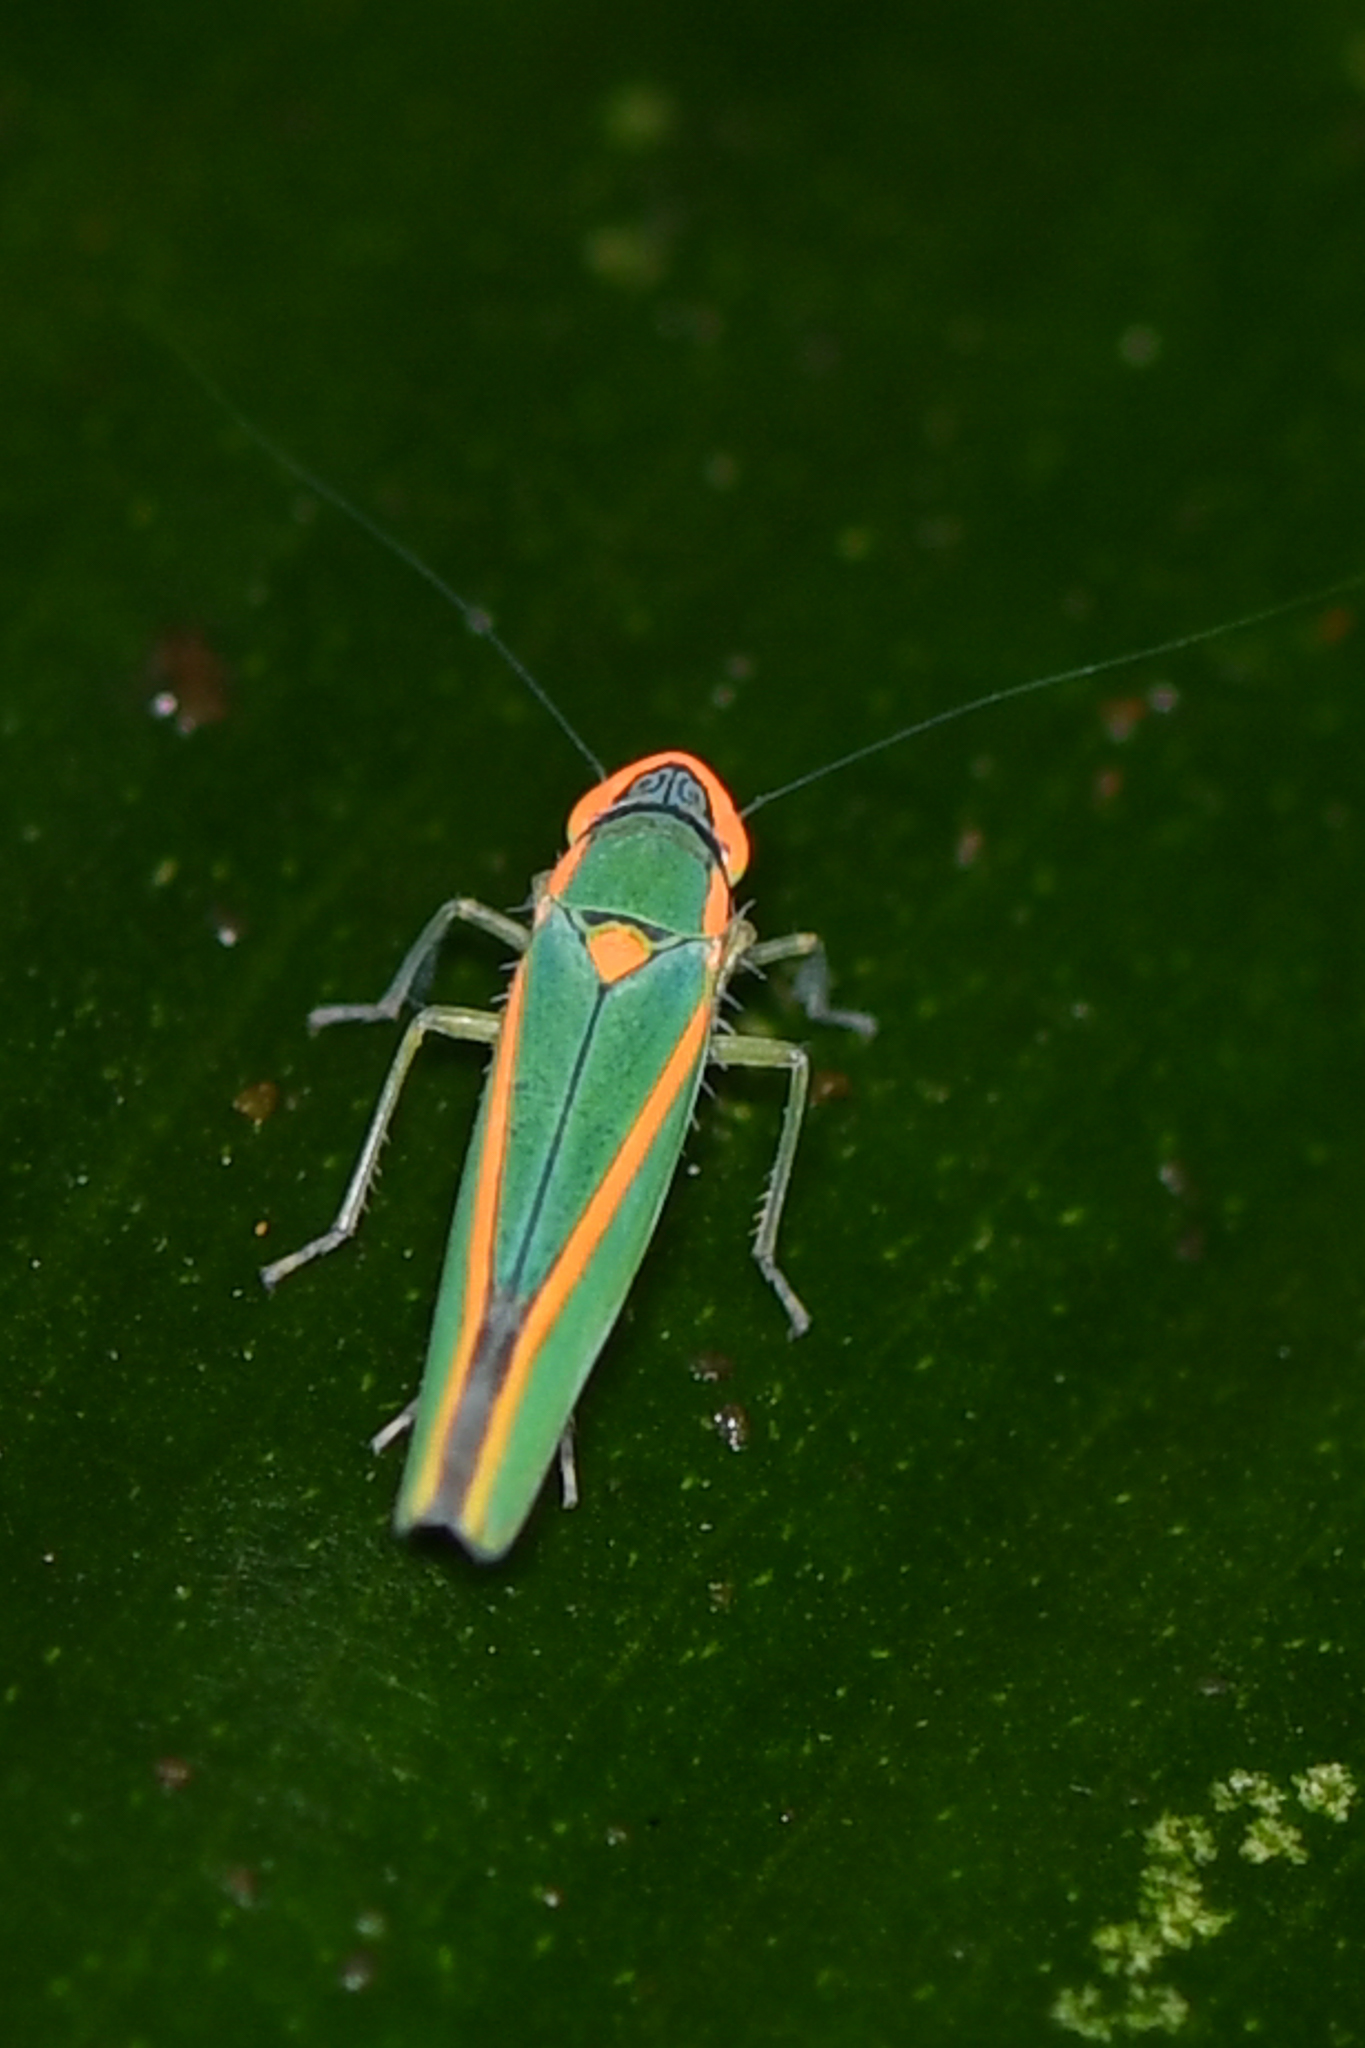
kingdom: Animalia
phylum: Arthropoda
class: Insecta
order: Hemiptera
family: Cicadellidae
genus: Sibovia
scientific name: Sibovia pileata
